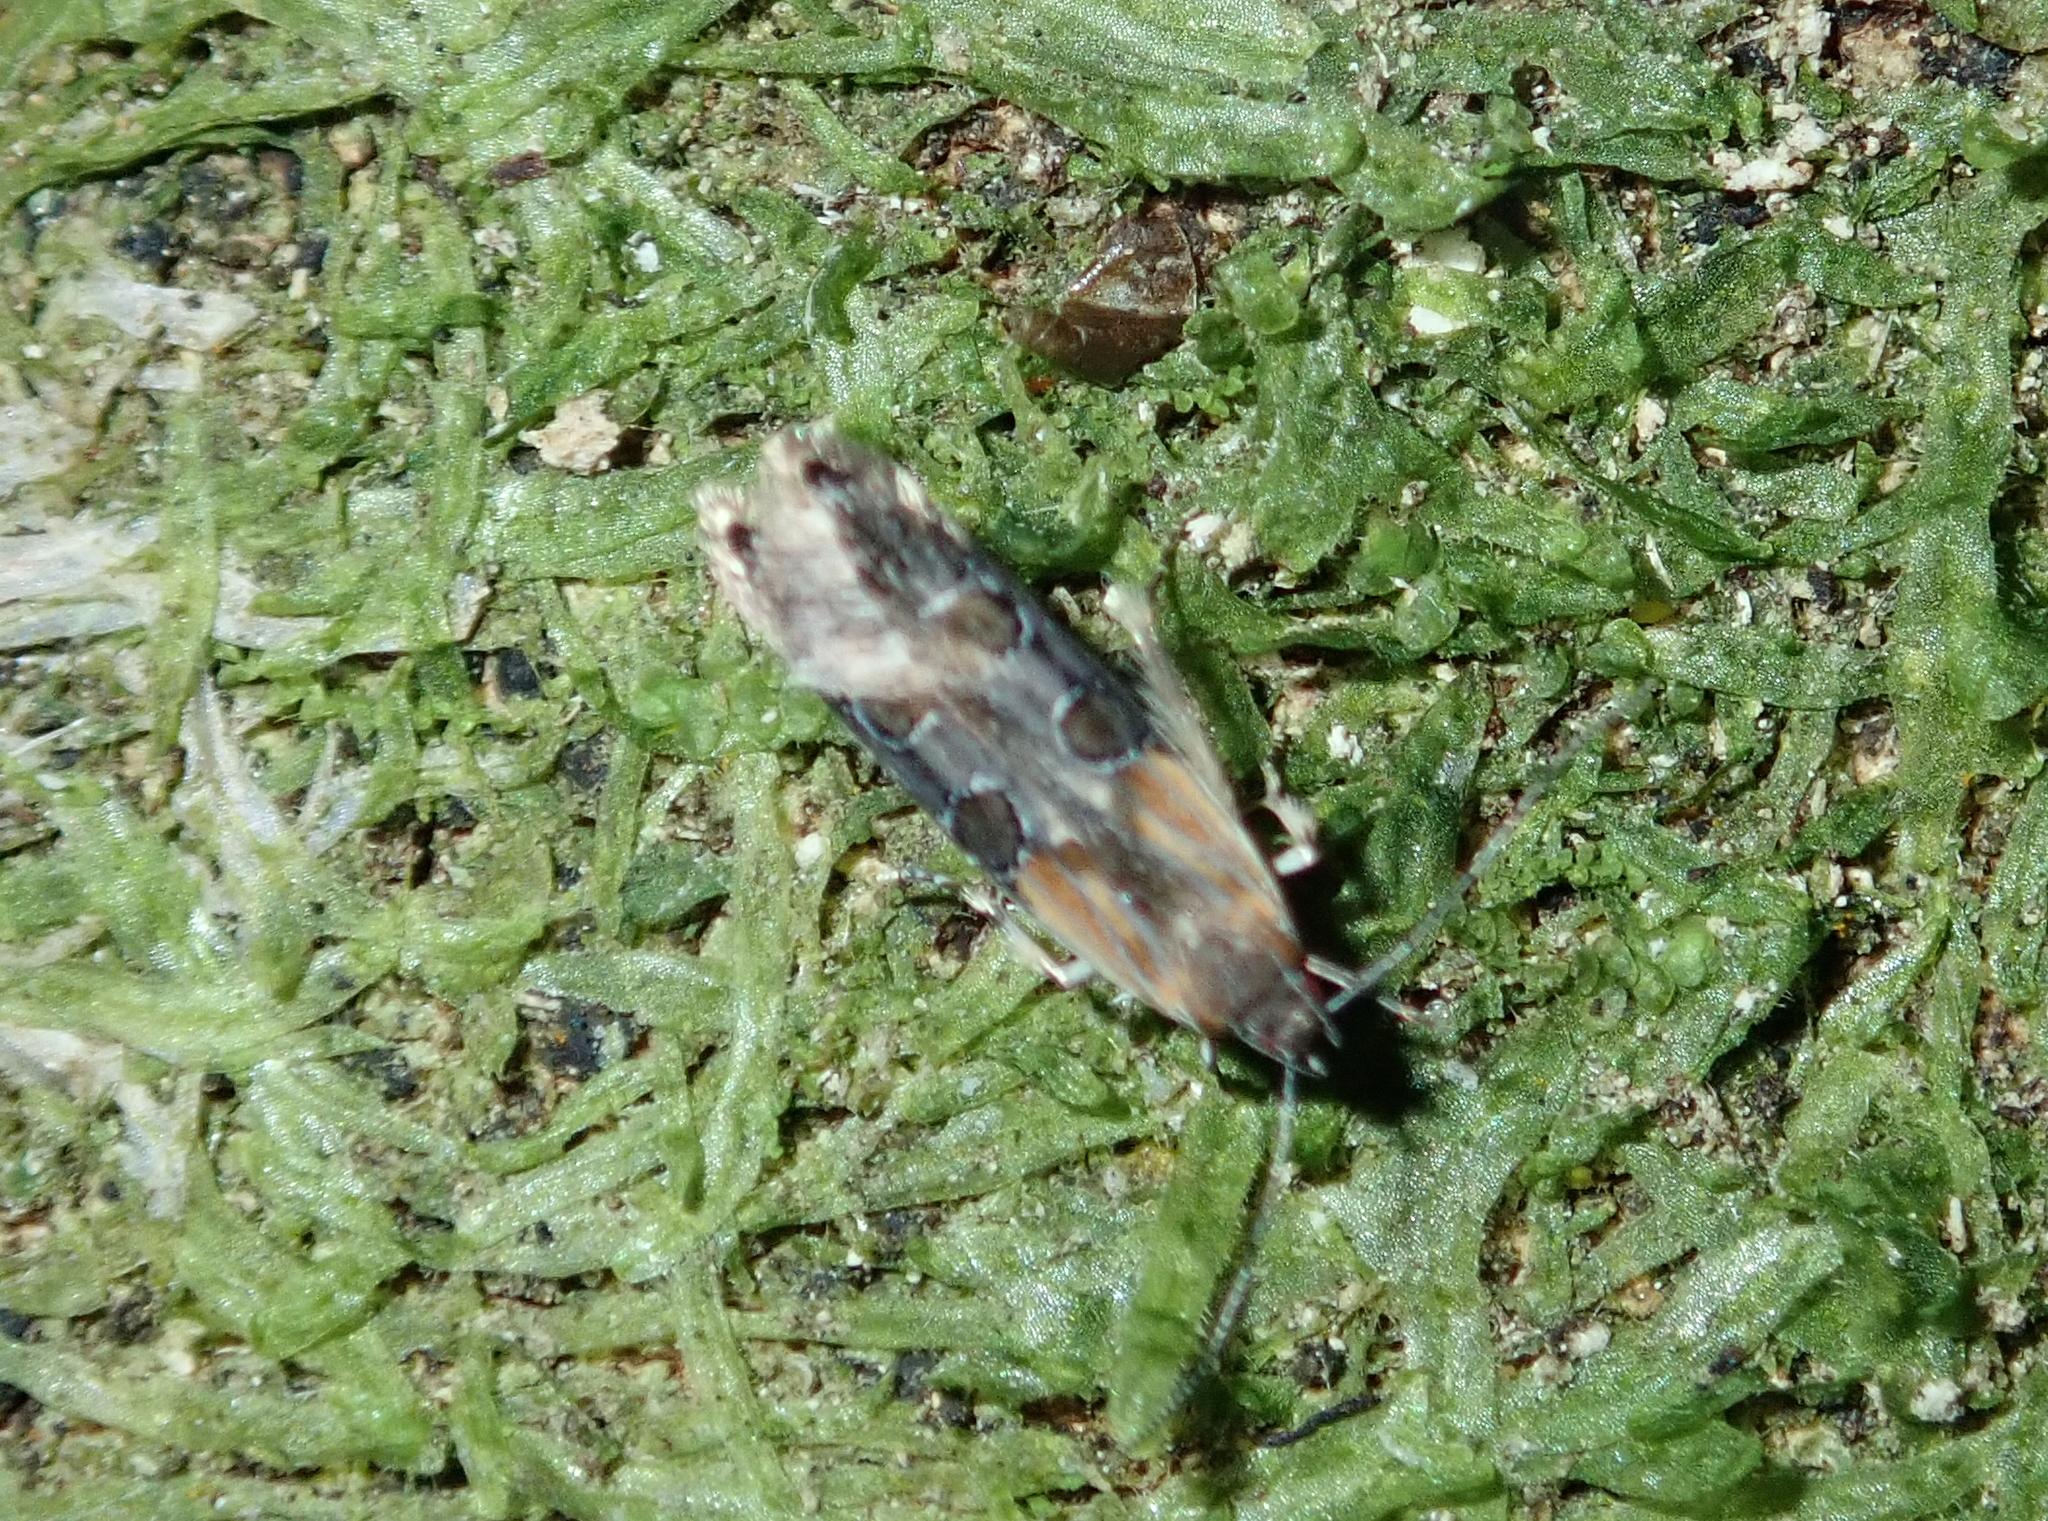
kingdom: Animalia
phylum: Arthropoda
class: Insecta
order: Lepidoptera
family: Elachistidae
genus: Circoxena
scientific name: Circoxena ditrocha
